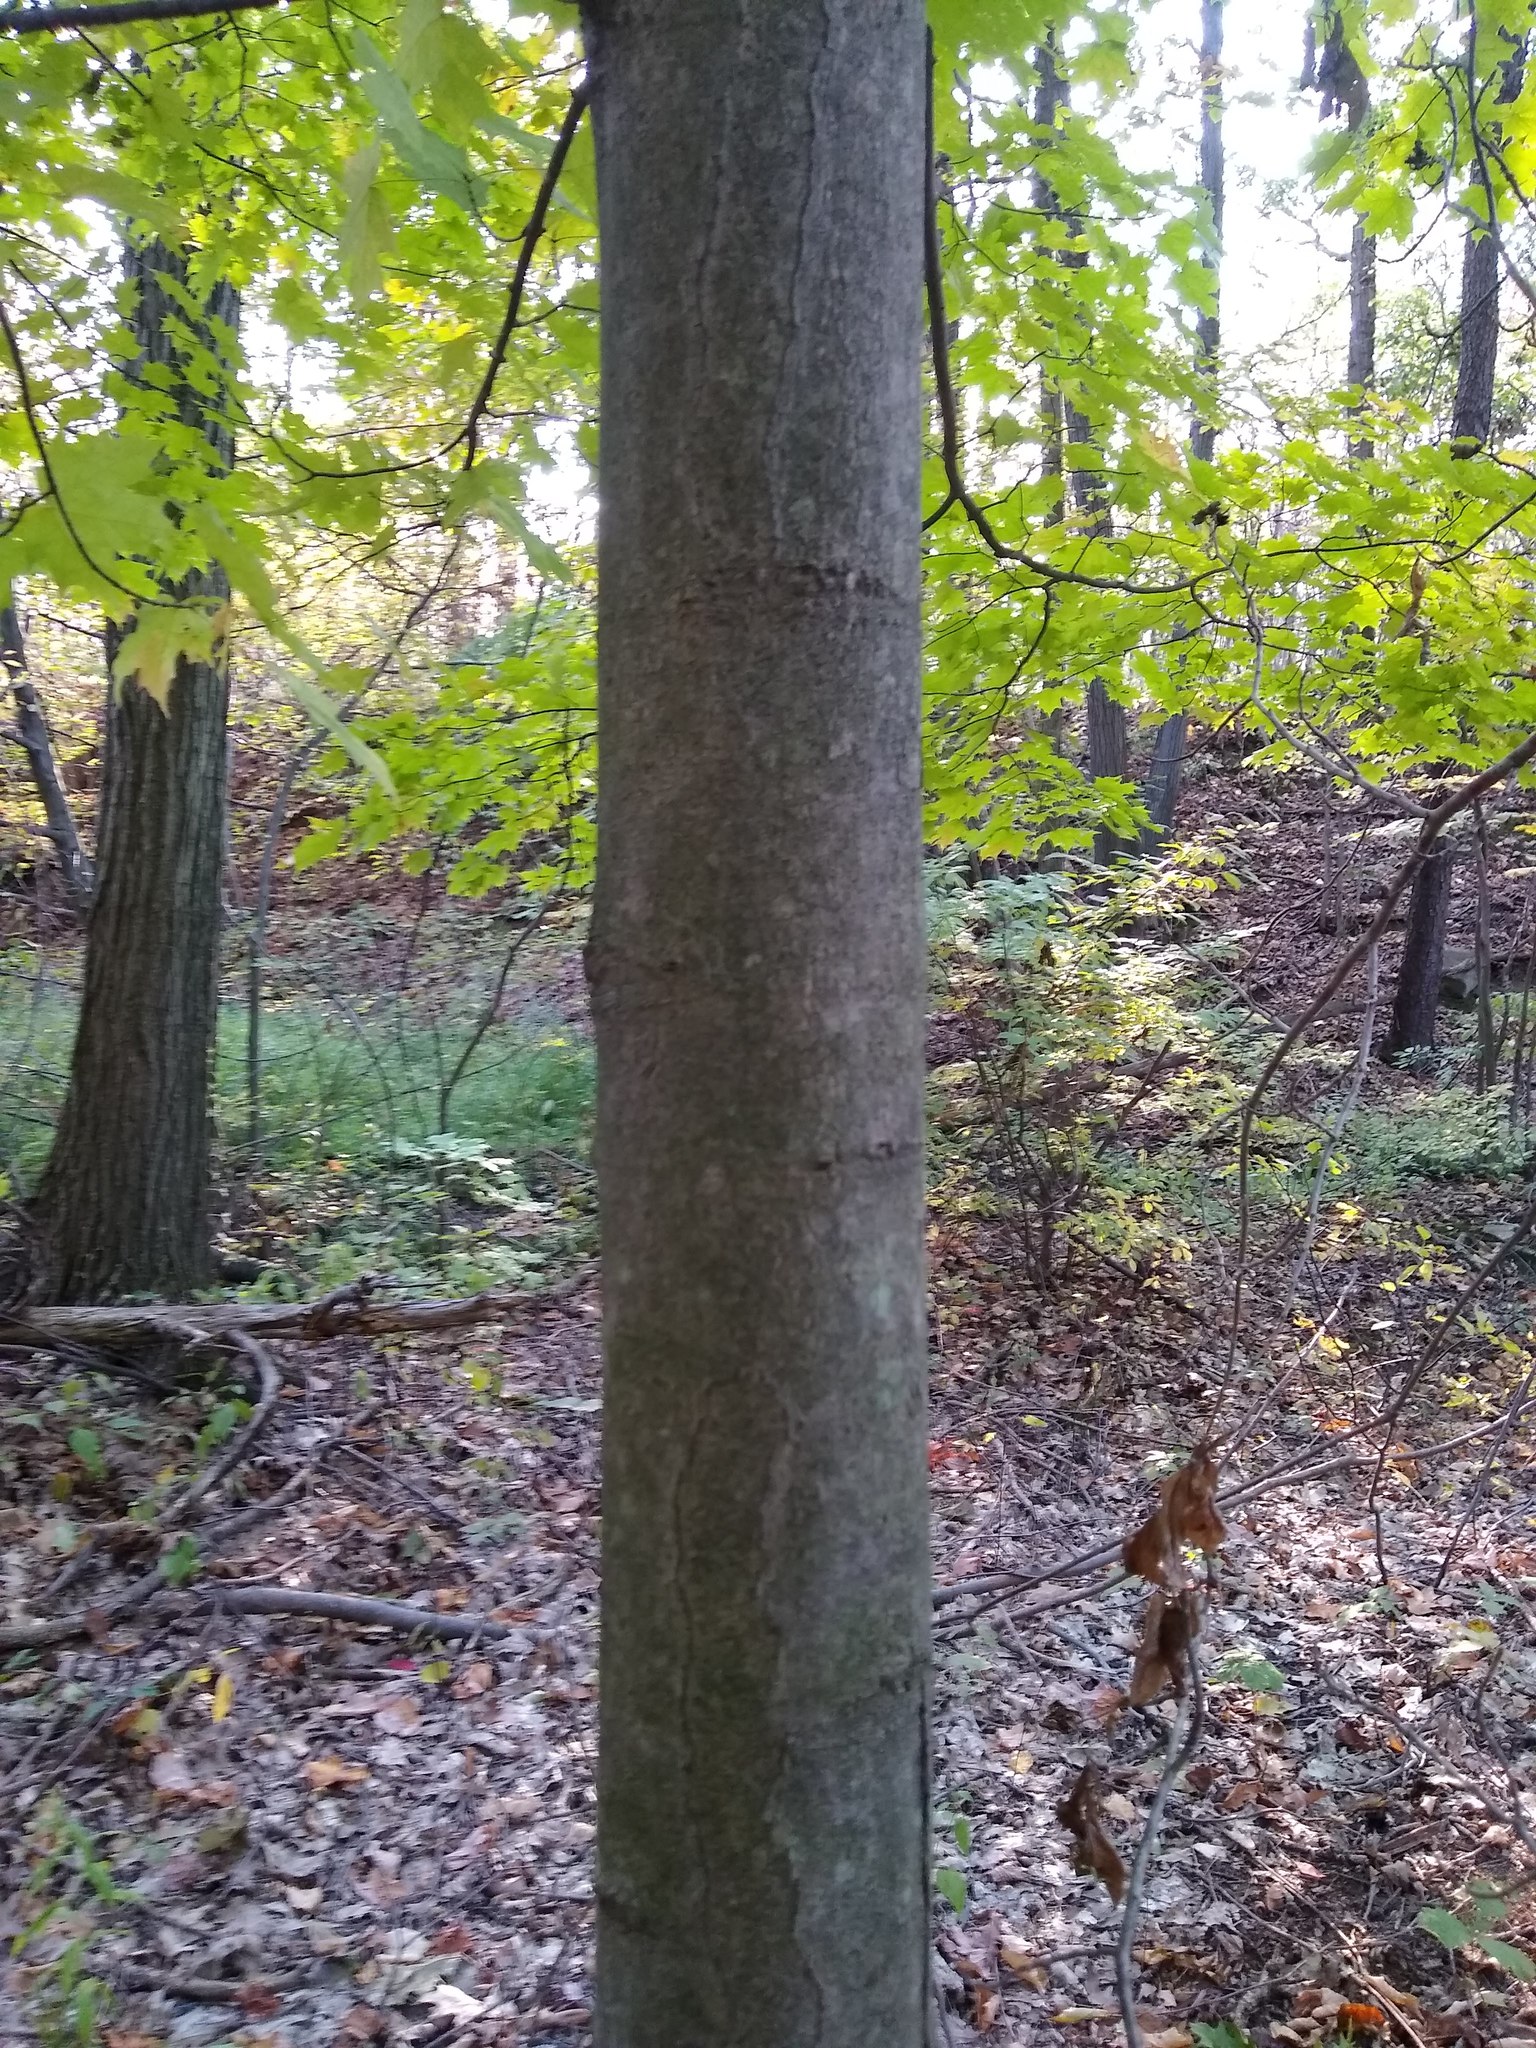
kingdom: Plantae
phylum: Tracheophyta
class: Magnoliopsida
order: Sapindales
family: Sapindaceae
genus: Acer
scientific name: Acer saccharum
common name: Sugar maple
